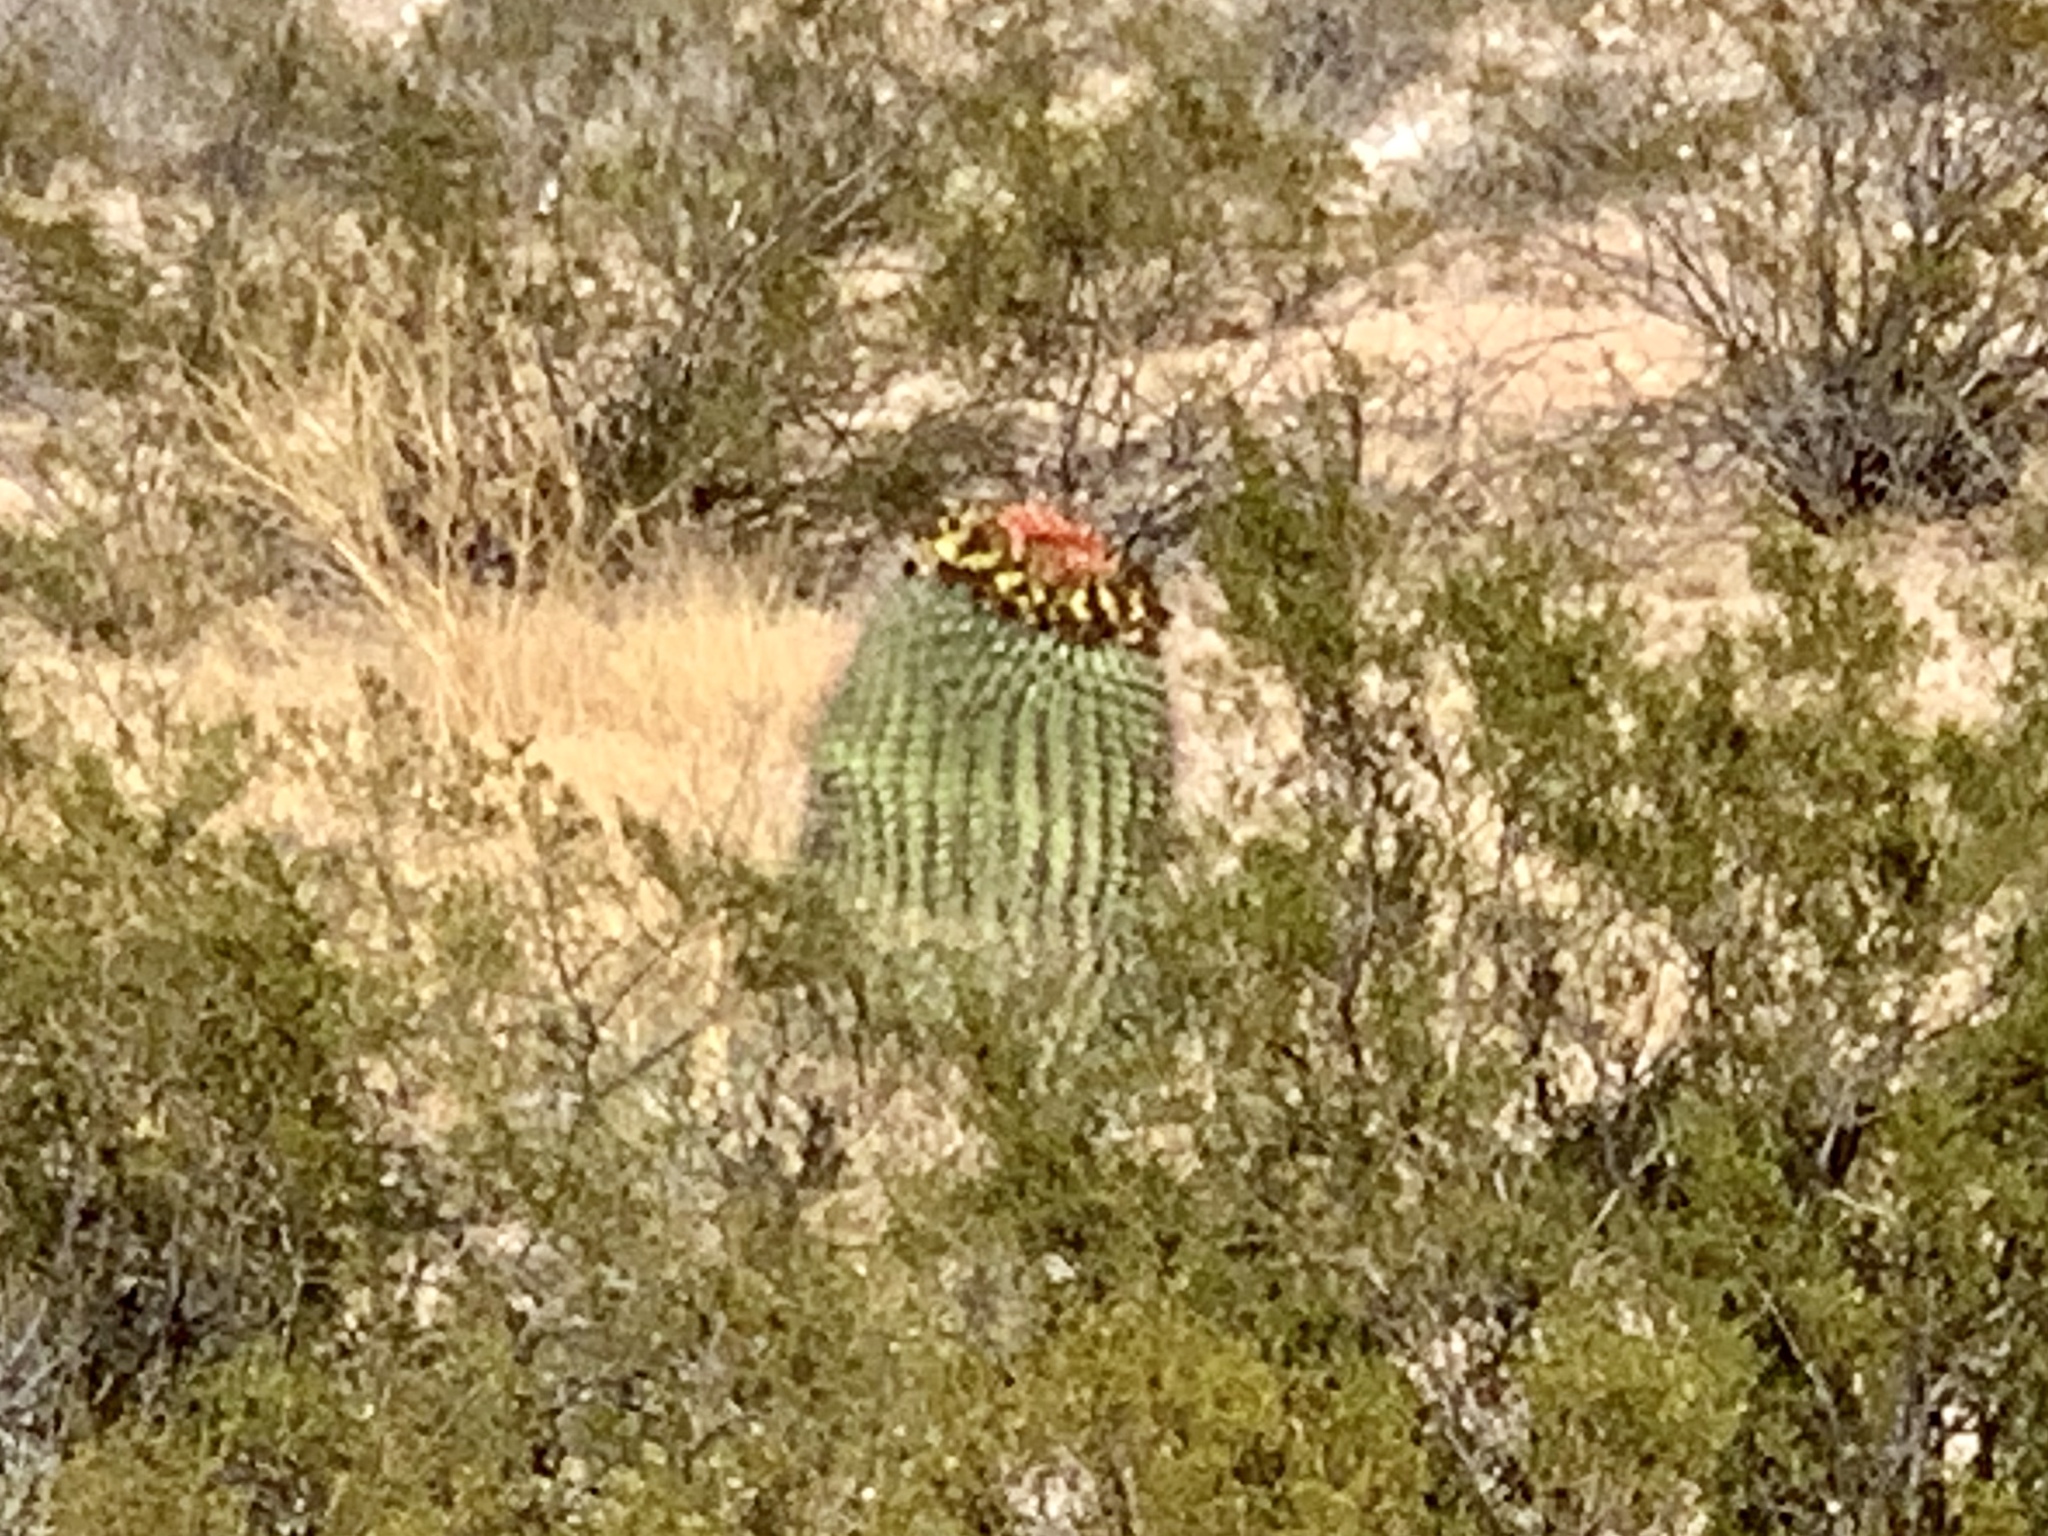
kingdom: Plantae
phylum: Tracheophyta
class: Magnoliopsida
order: Caryophyllales
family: Cactaceae
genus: Ferocactus
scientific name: Ferocactus wislizeni
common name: Candy barrel cactus
